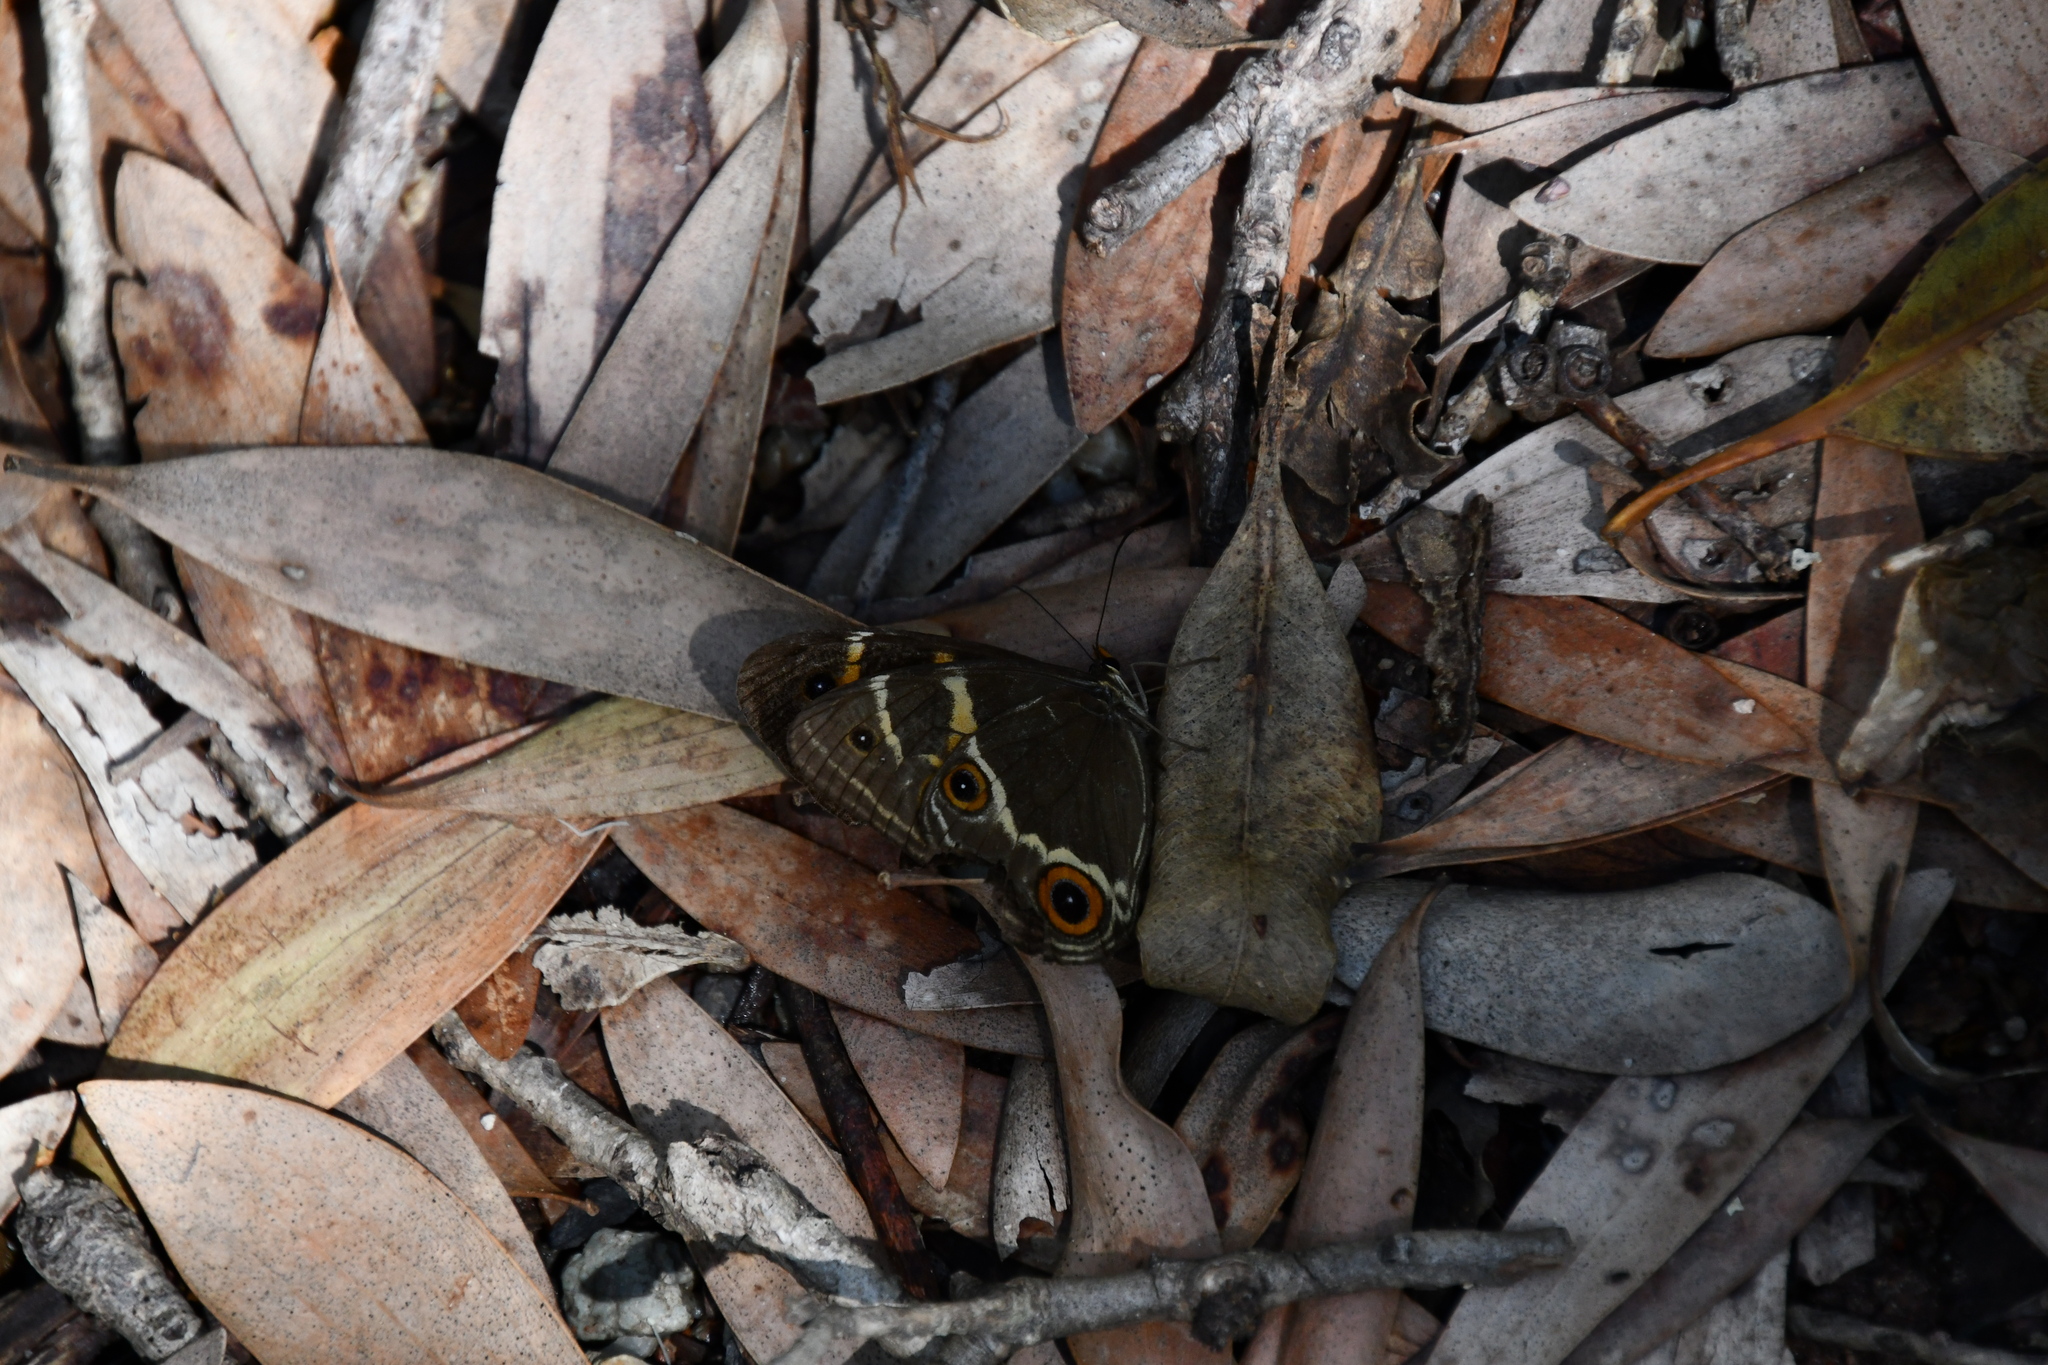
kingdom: Animalia
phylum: Arthropoda
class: Insecta
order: Lepidoptera
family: Nymphalidae
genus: Tisiphone
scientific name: Tisiphone abeona
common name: Swordgrass brown
